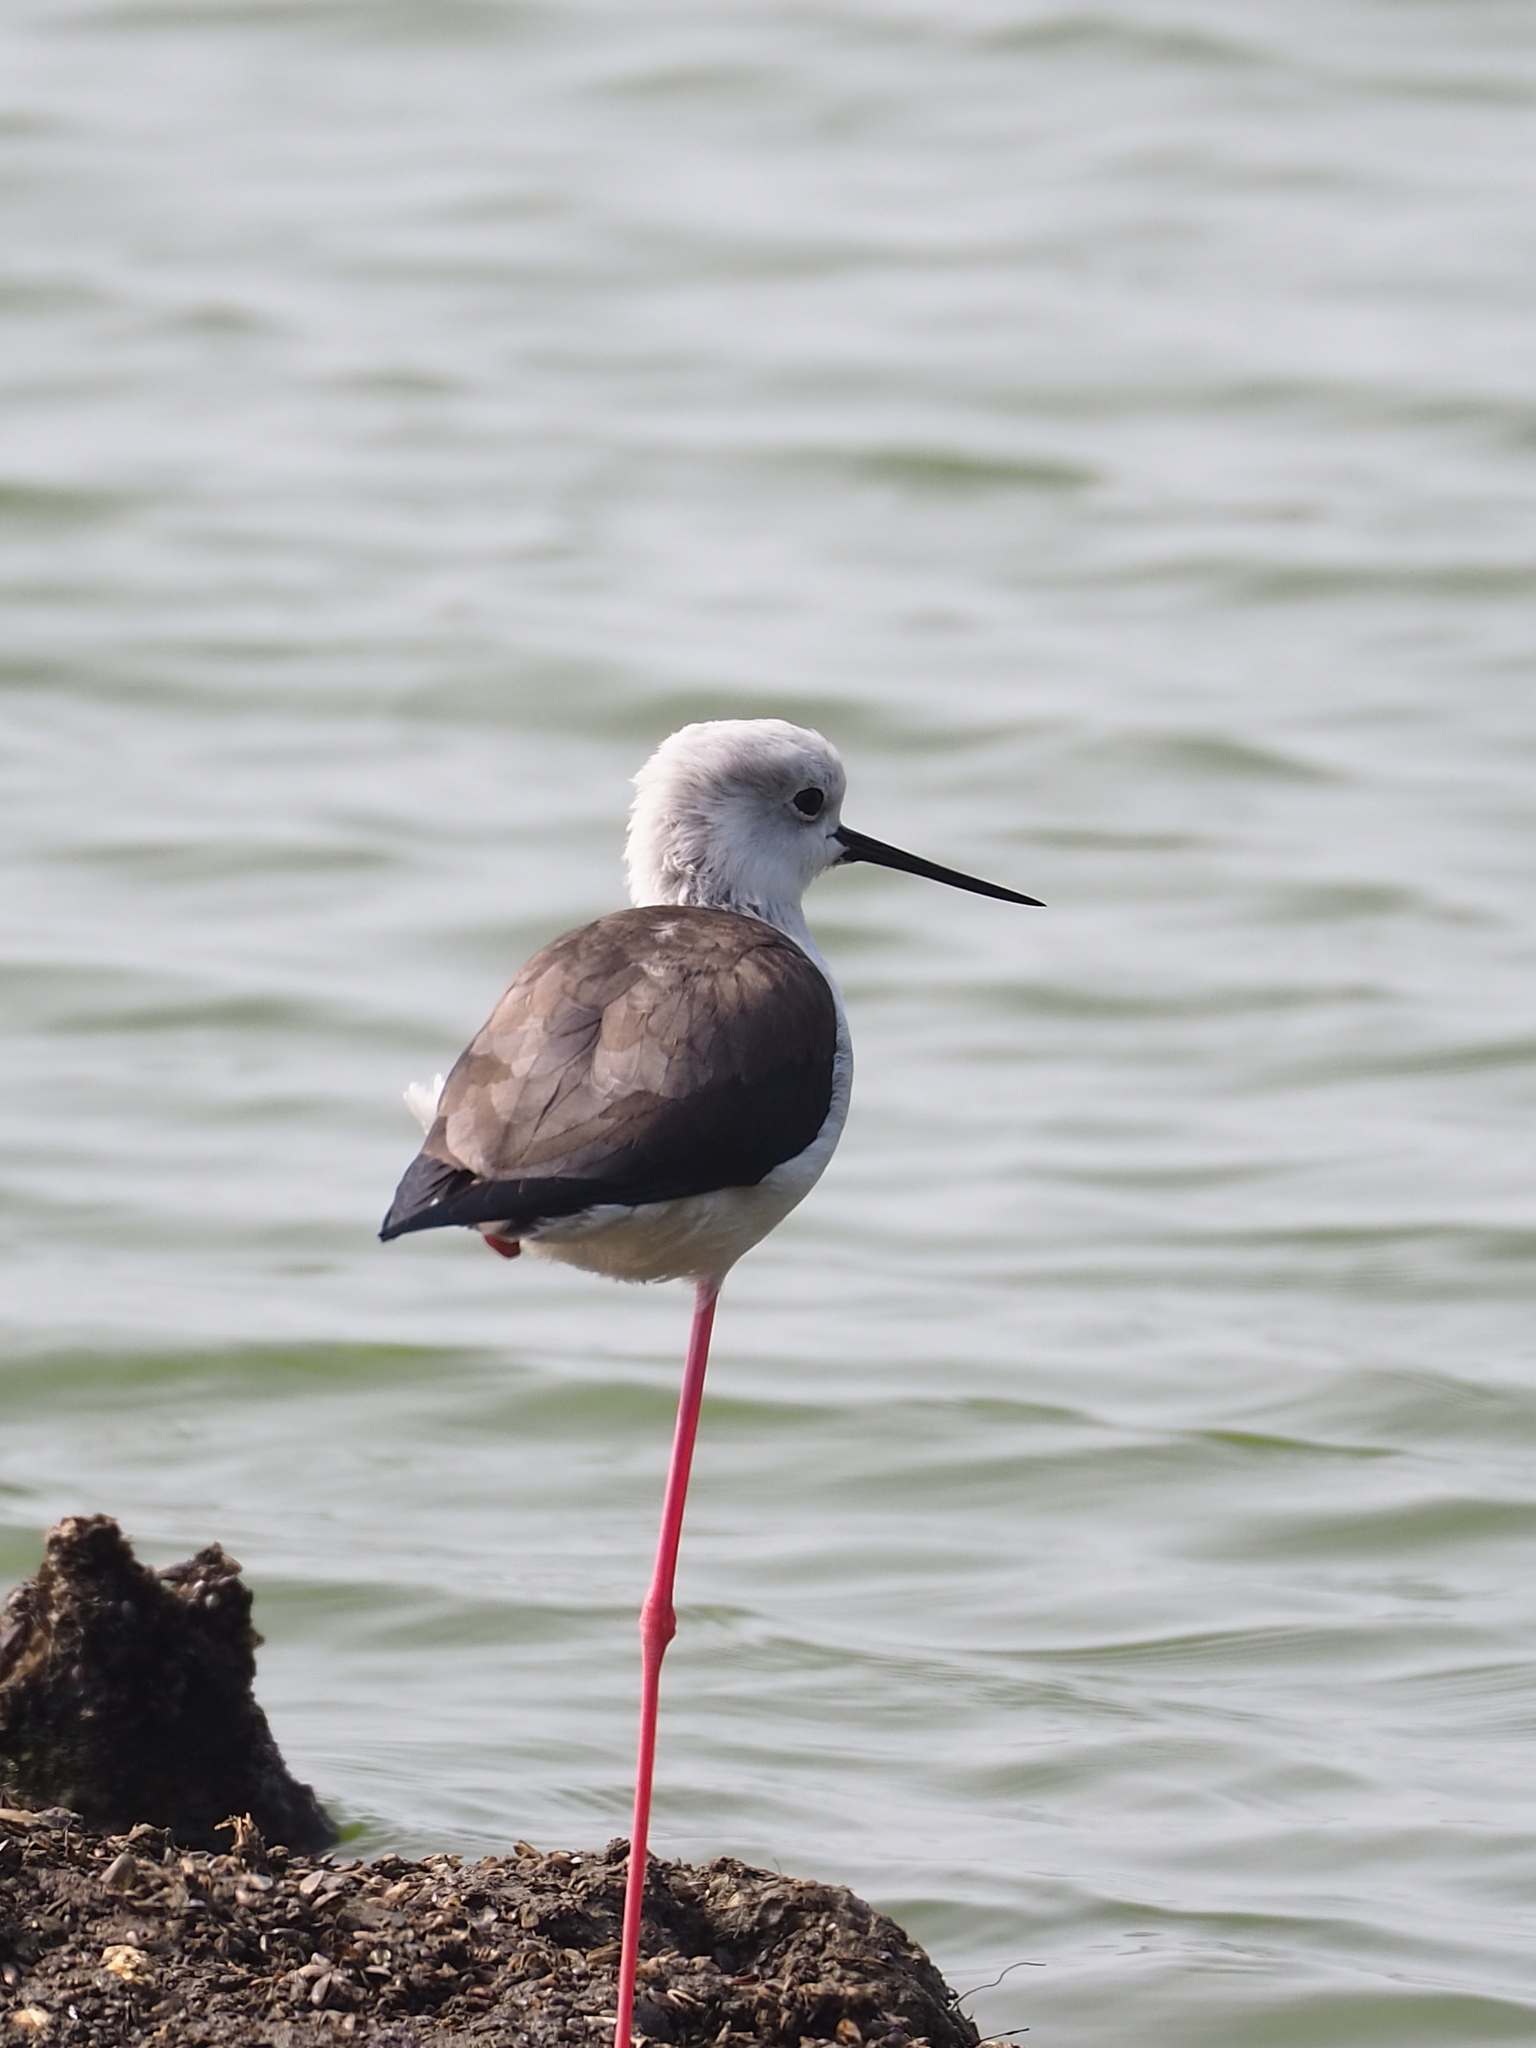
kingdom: Animalia
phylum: Chordata
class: Aves
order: Charadriiformes
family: Recurvirostridae
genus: Himantopus
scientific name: Himantopus himantopus
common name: Black-winged stilt
